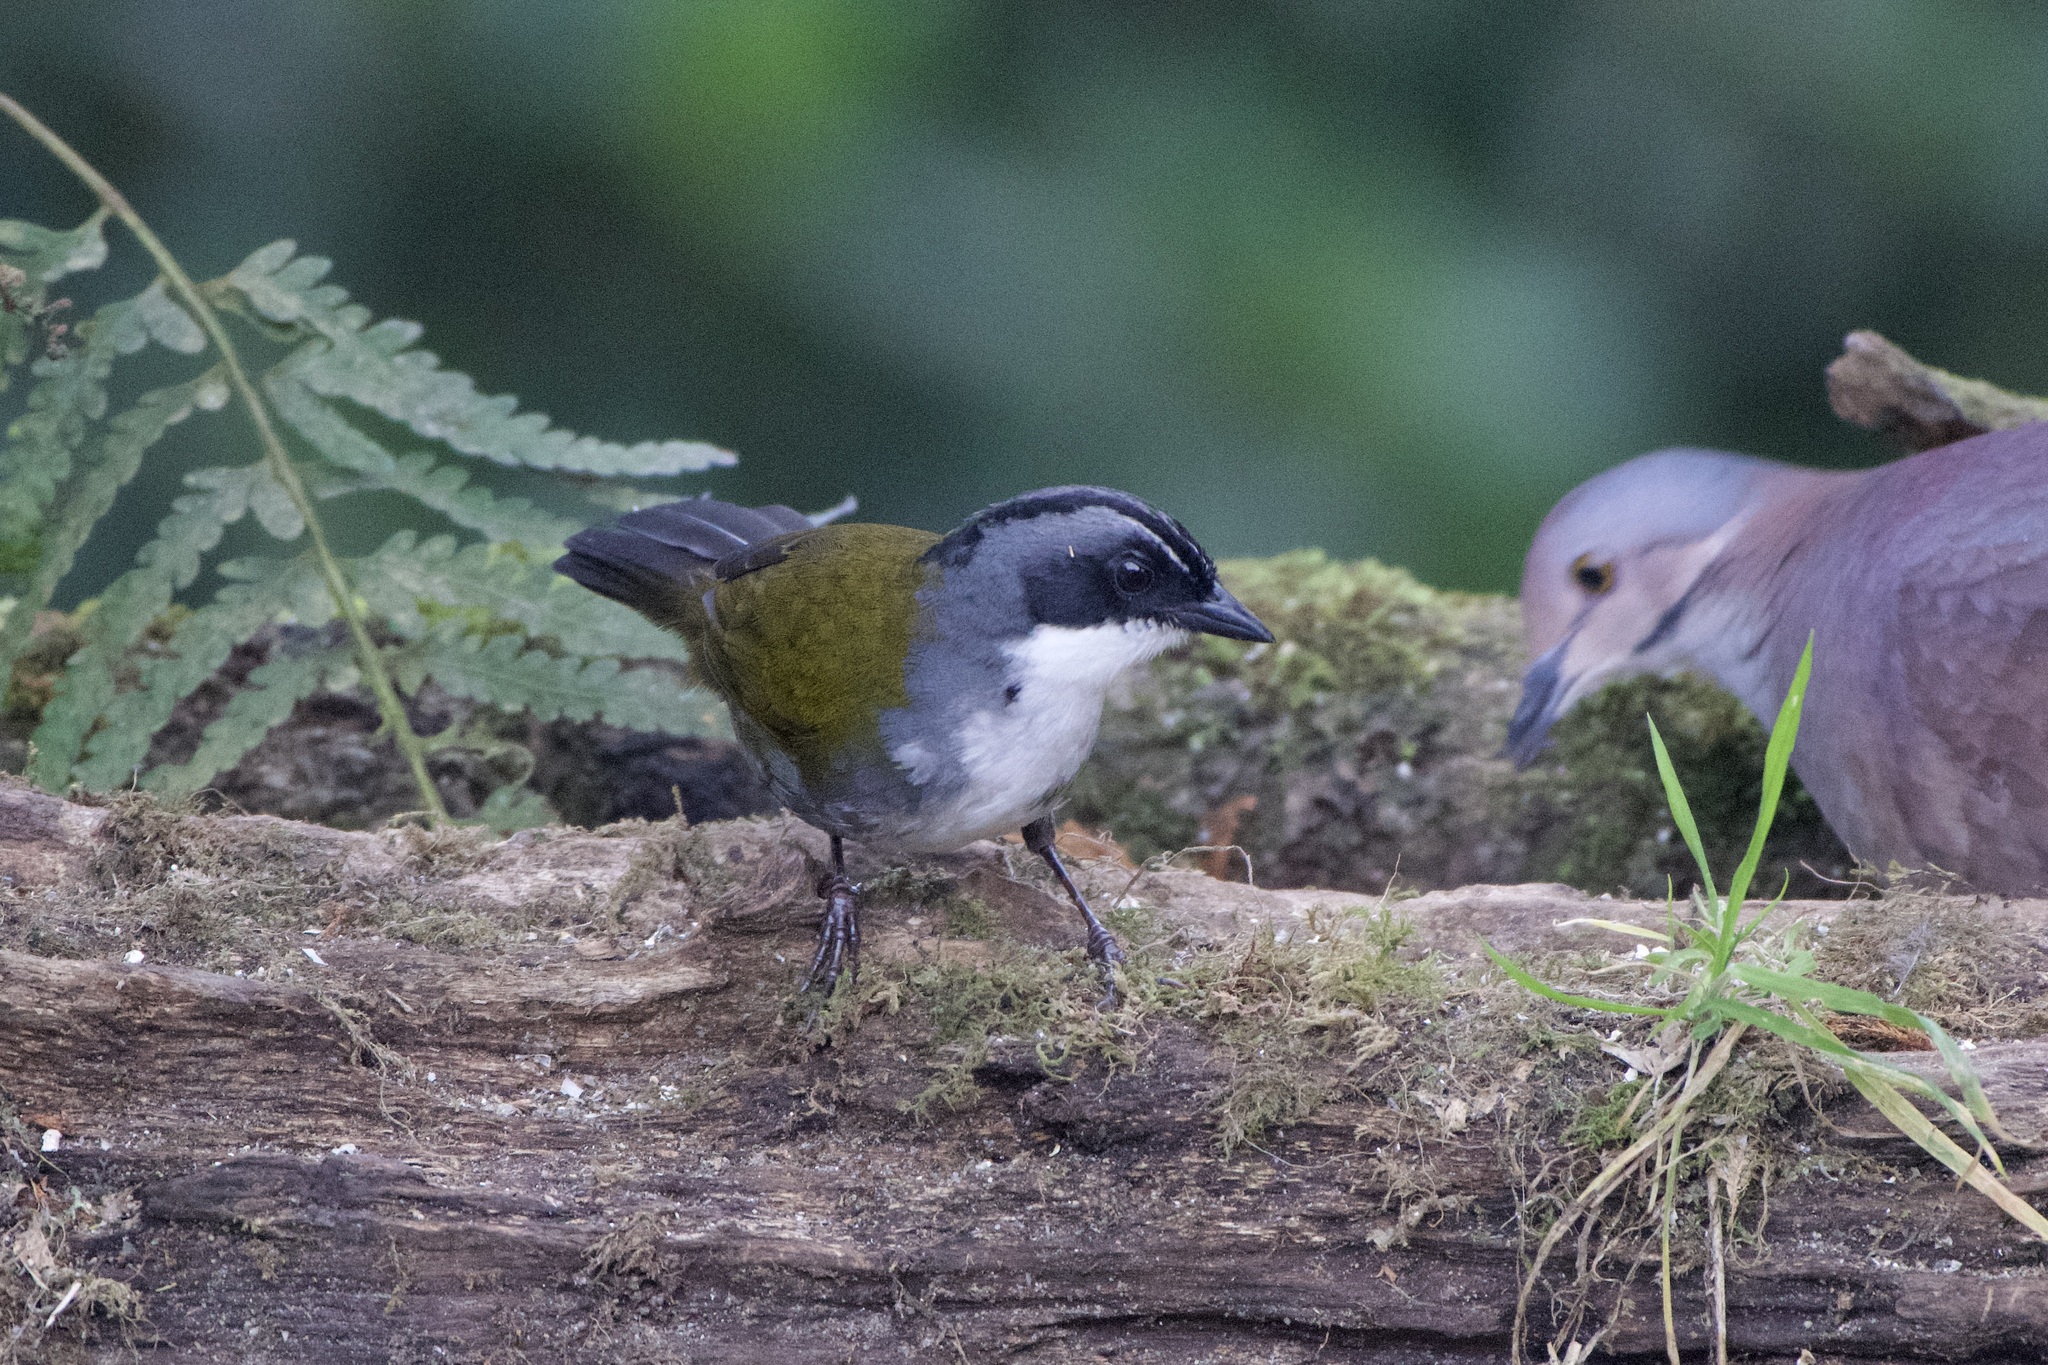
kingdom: Animalia
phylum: Chordata
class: Aves
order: Passeriformes
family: Passerellidae
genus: Arremon
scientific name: Arremon assimilis
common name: Grey-browed brushfinch
